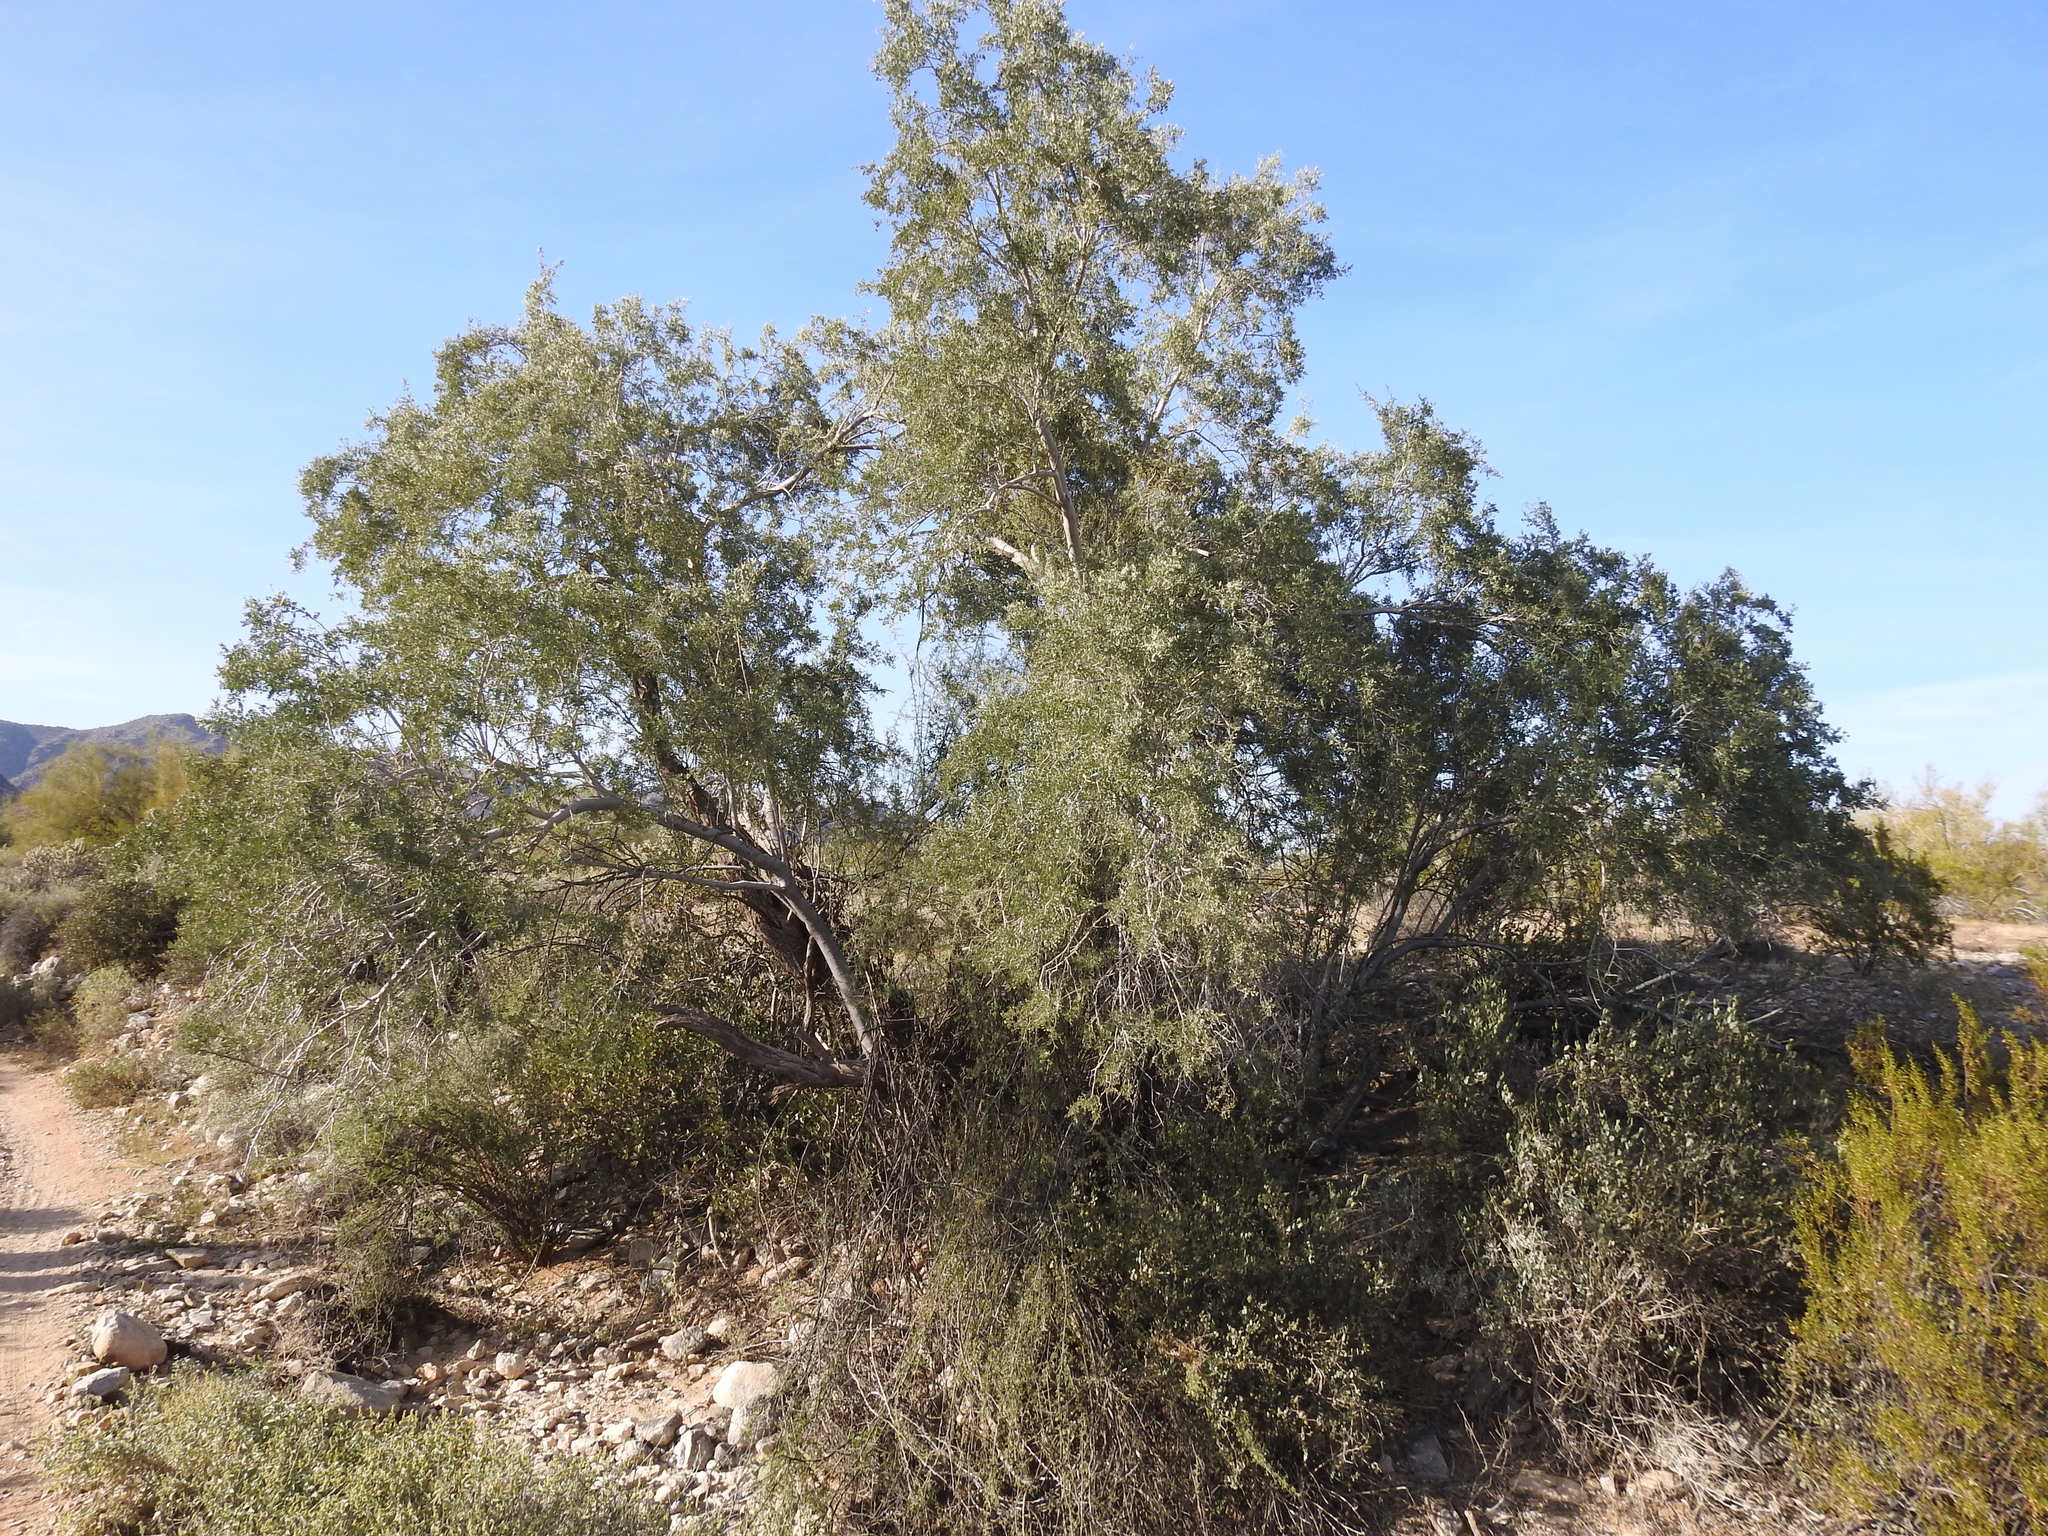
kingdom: Plantae
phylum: Tracheophyta
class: Magnoliopsida
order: Fabales
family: Fabaceae
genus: Olneya
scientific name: Olneya tesota
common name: Desert ironwood
